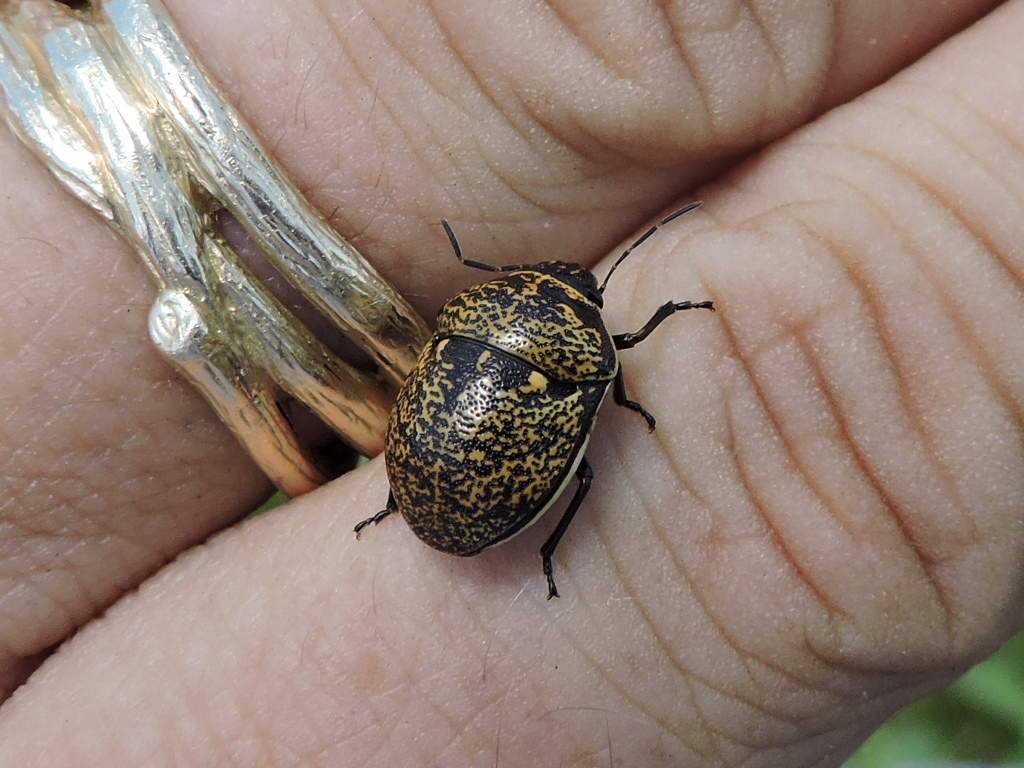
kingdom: Animalia
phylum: Arthropoda
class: Insecta
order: Hemiptera
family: Scutelleridae
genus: Orsilochides
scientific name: Orsilochides guttata
